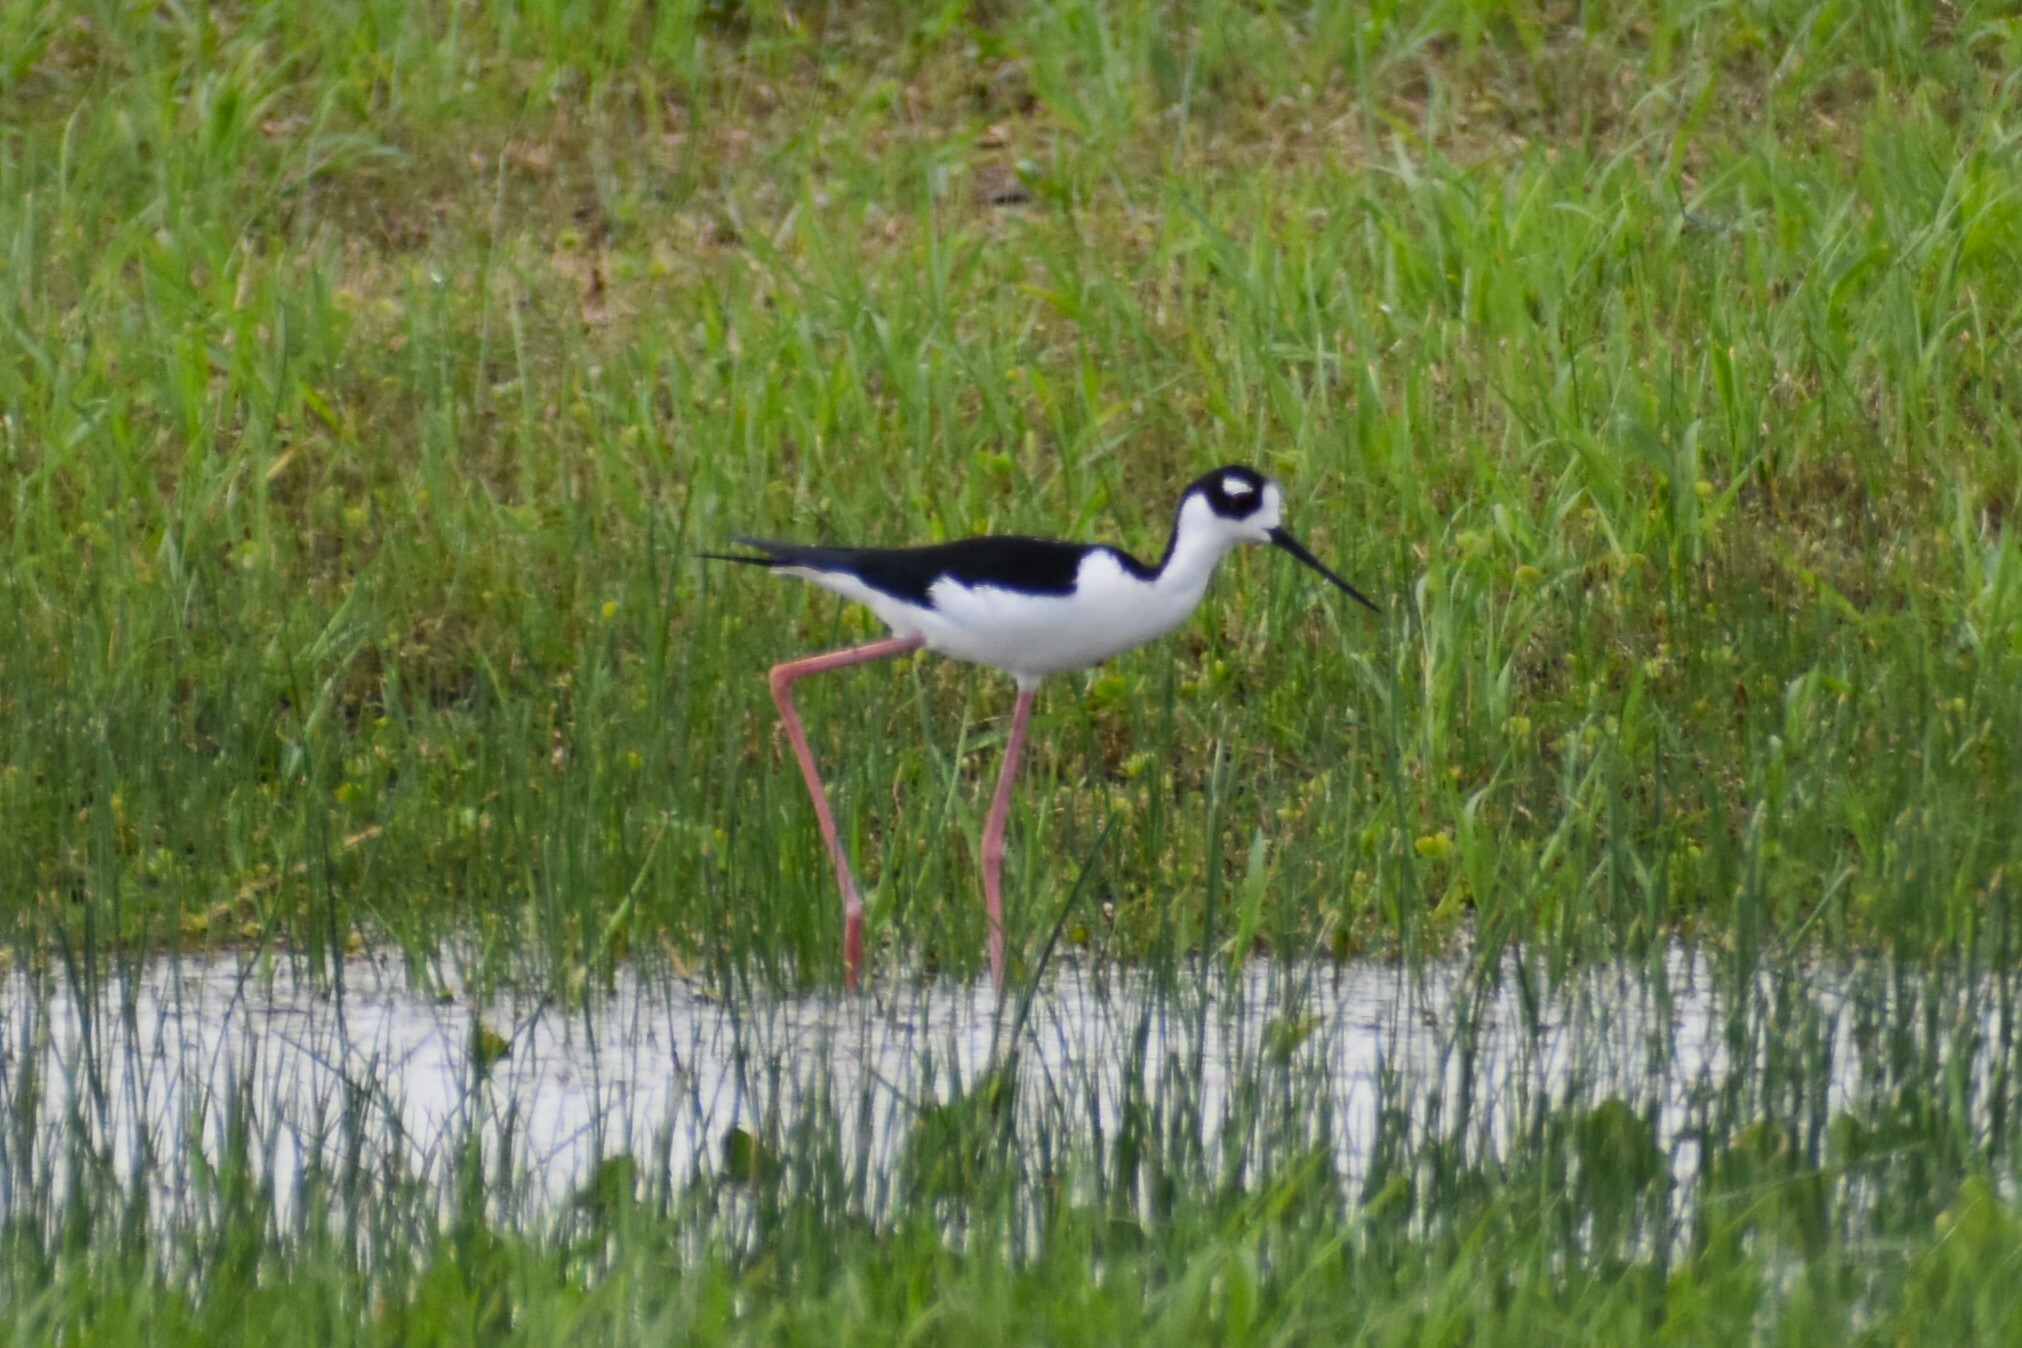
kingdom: Animalia
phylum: Chordata
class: Aves
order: Charadriiformes
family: Recurvirostridae
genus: Himantopus
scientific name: Himantopus mexicanus
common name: Black-necked stilt
